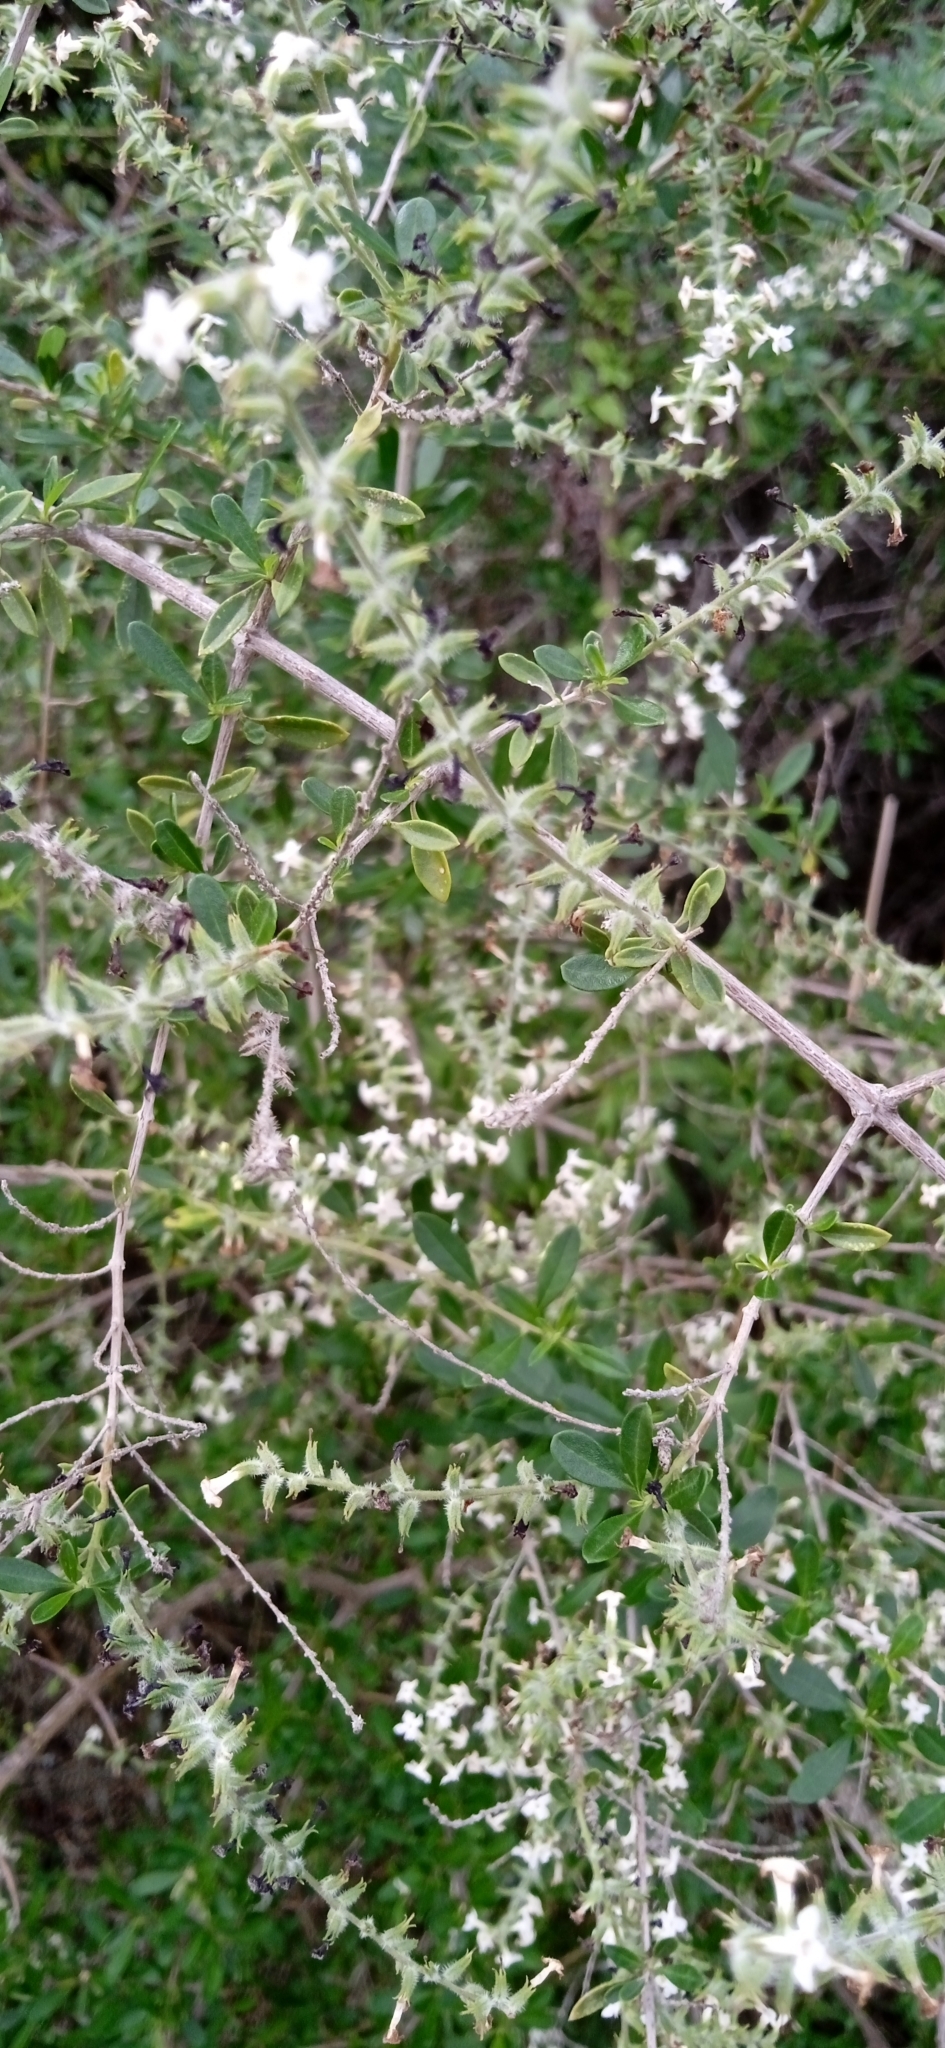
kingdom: Plantae
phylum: Tracheophyta
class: Magnoliopsida
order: Lamiales
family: Verbenaceae
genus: Aloysia
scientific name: Aloysia gratissima
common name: Common bee-brush
